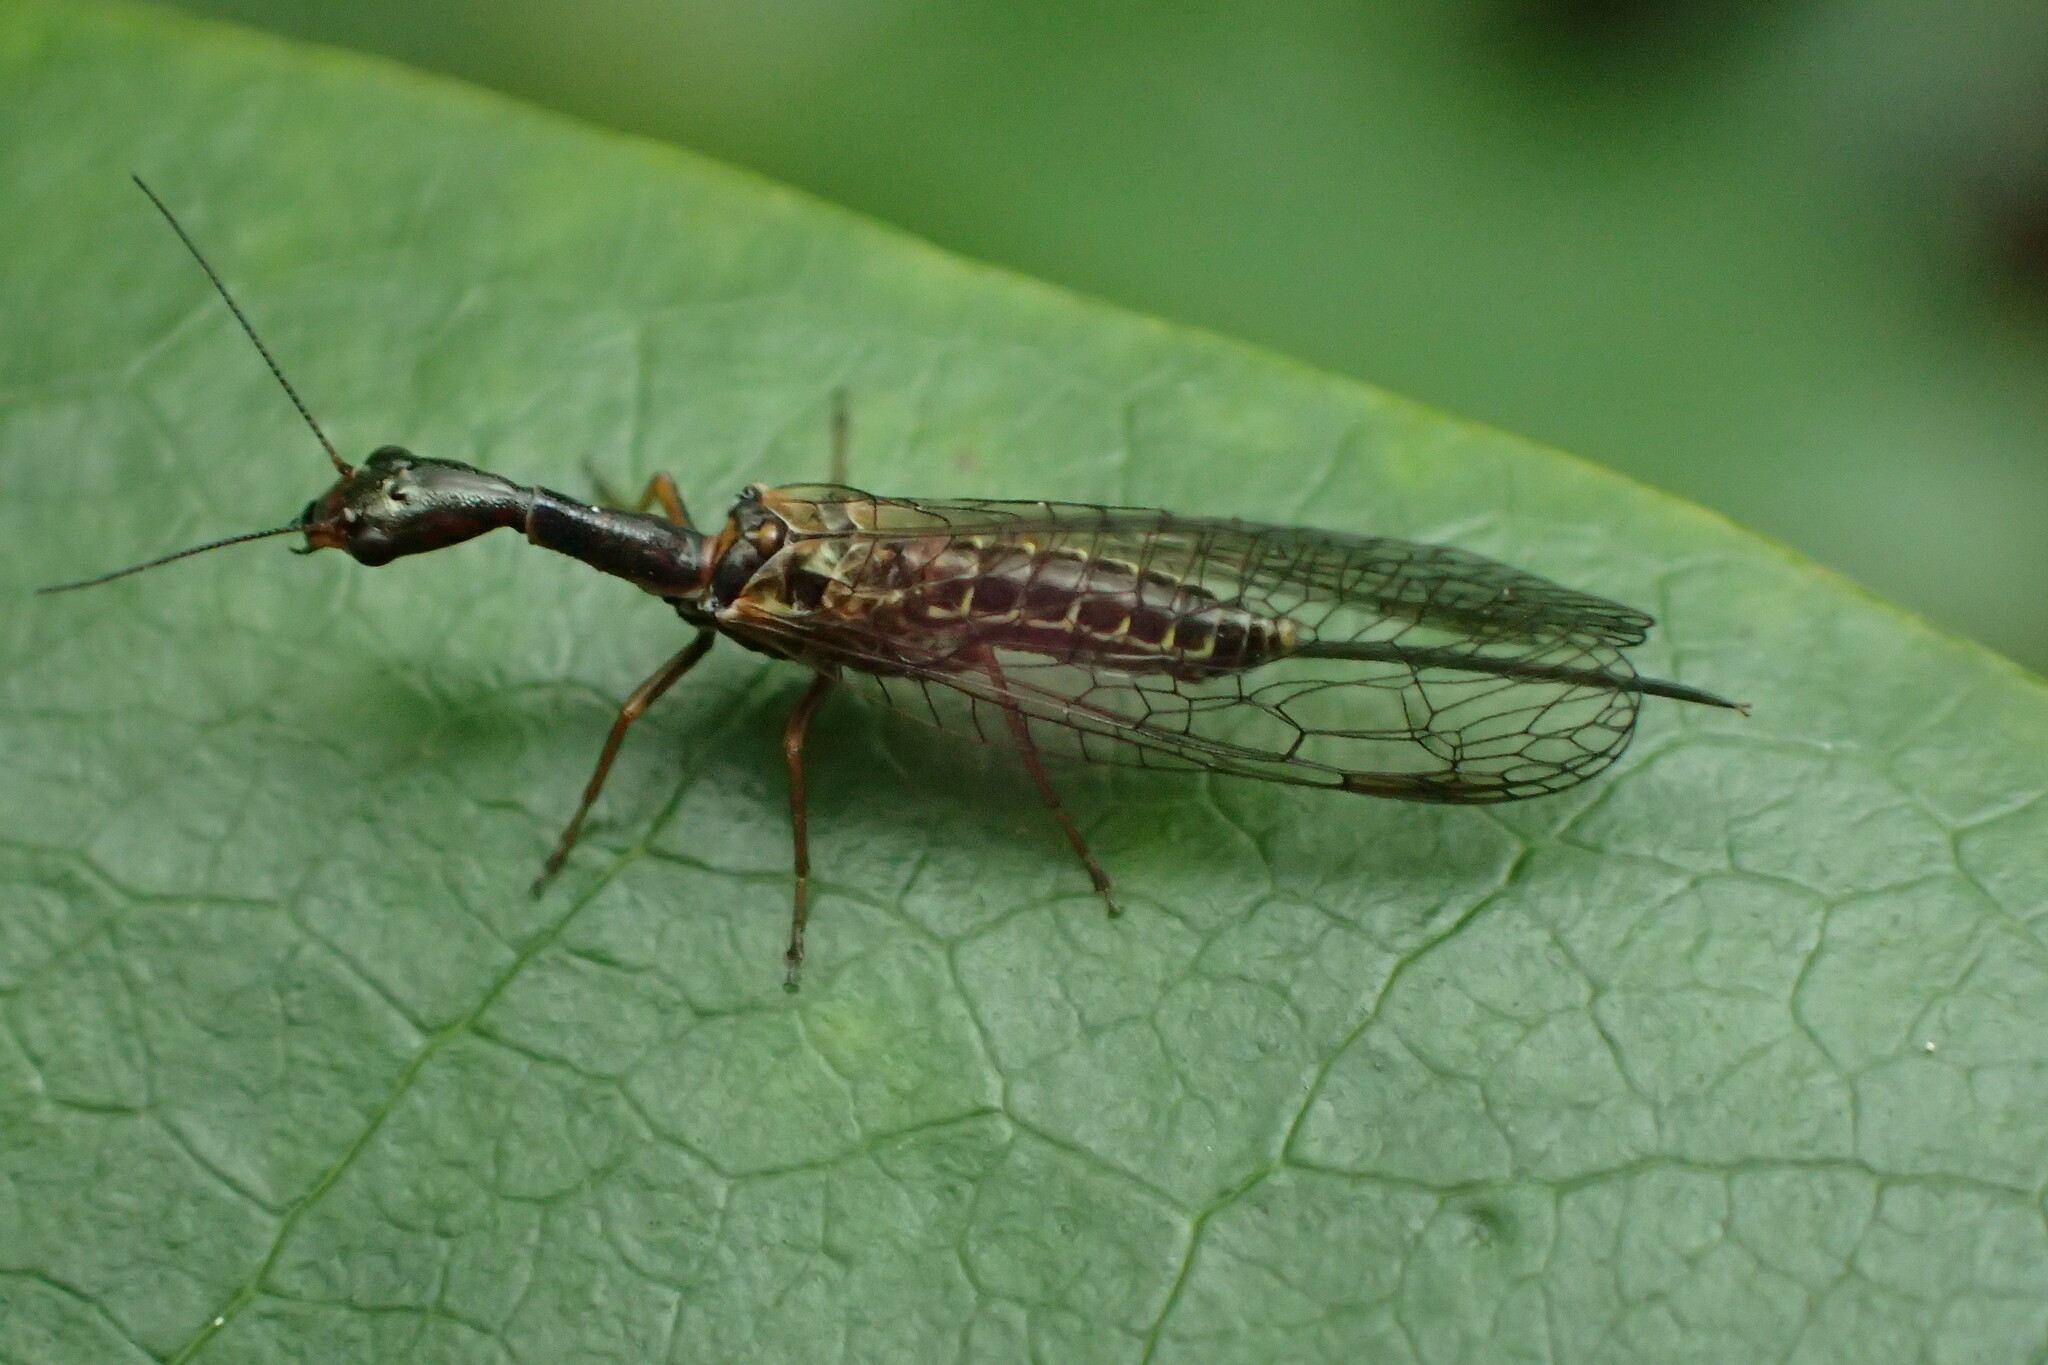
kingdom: Animalia
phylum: Arthropoda
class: Insecta
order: Raphidioptera
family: Raphidiidae
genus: Atlantoraphidia
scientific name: Atlantoraphidia maculicollis
